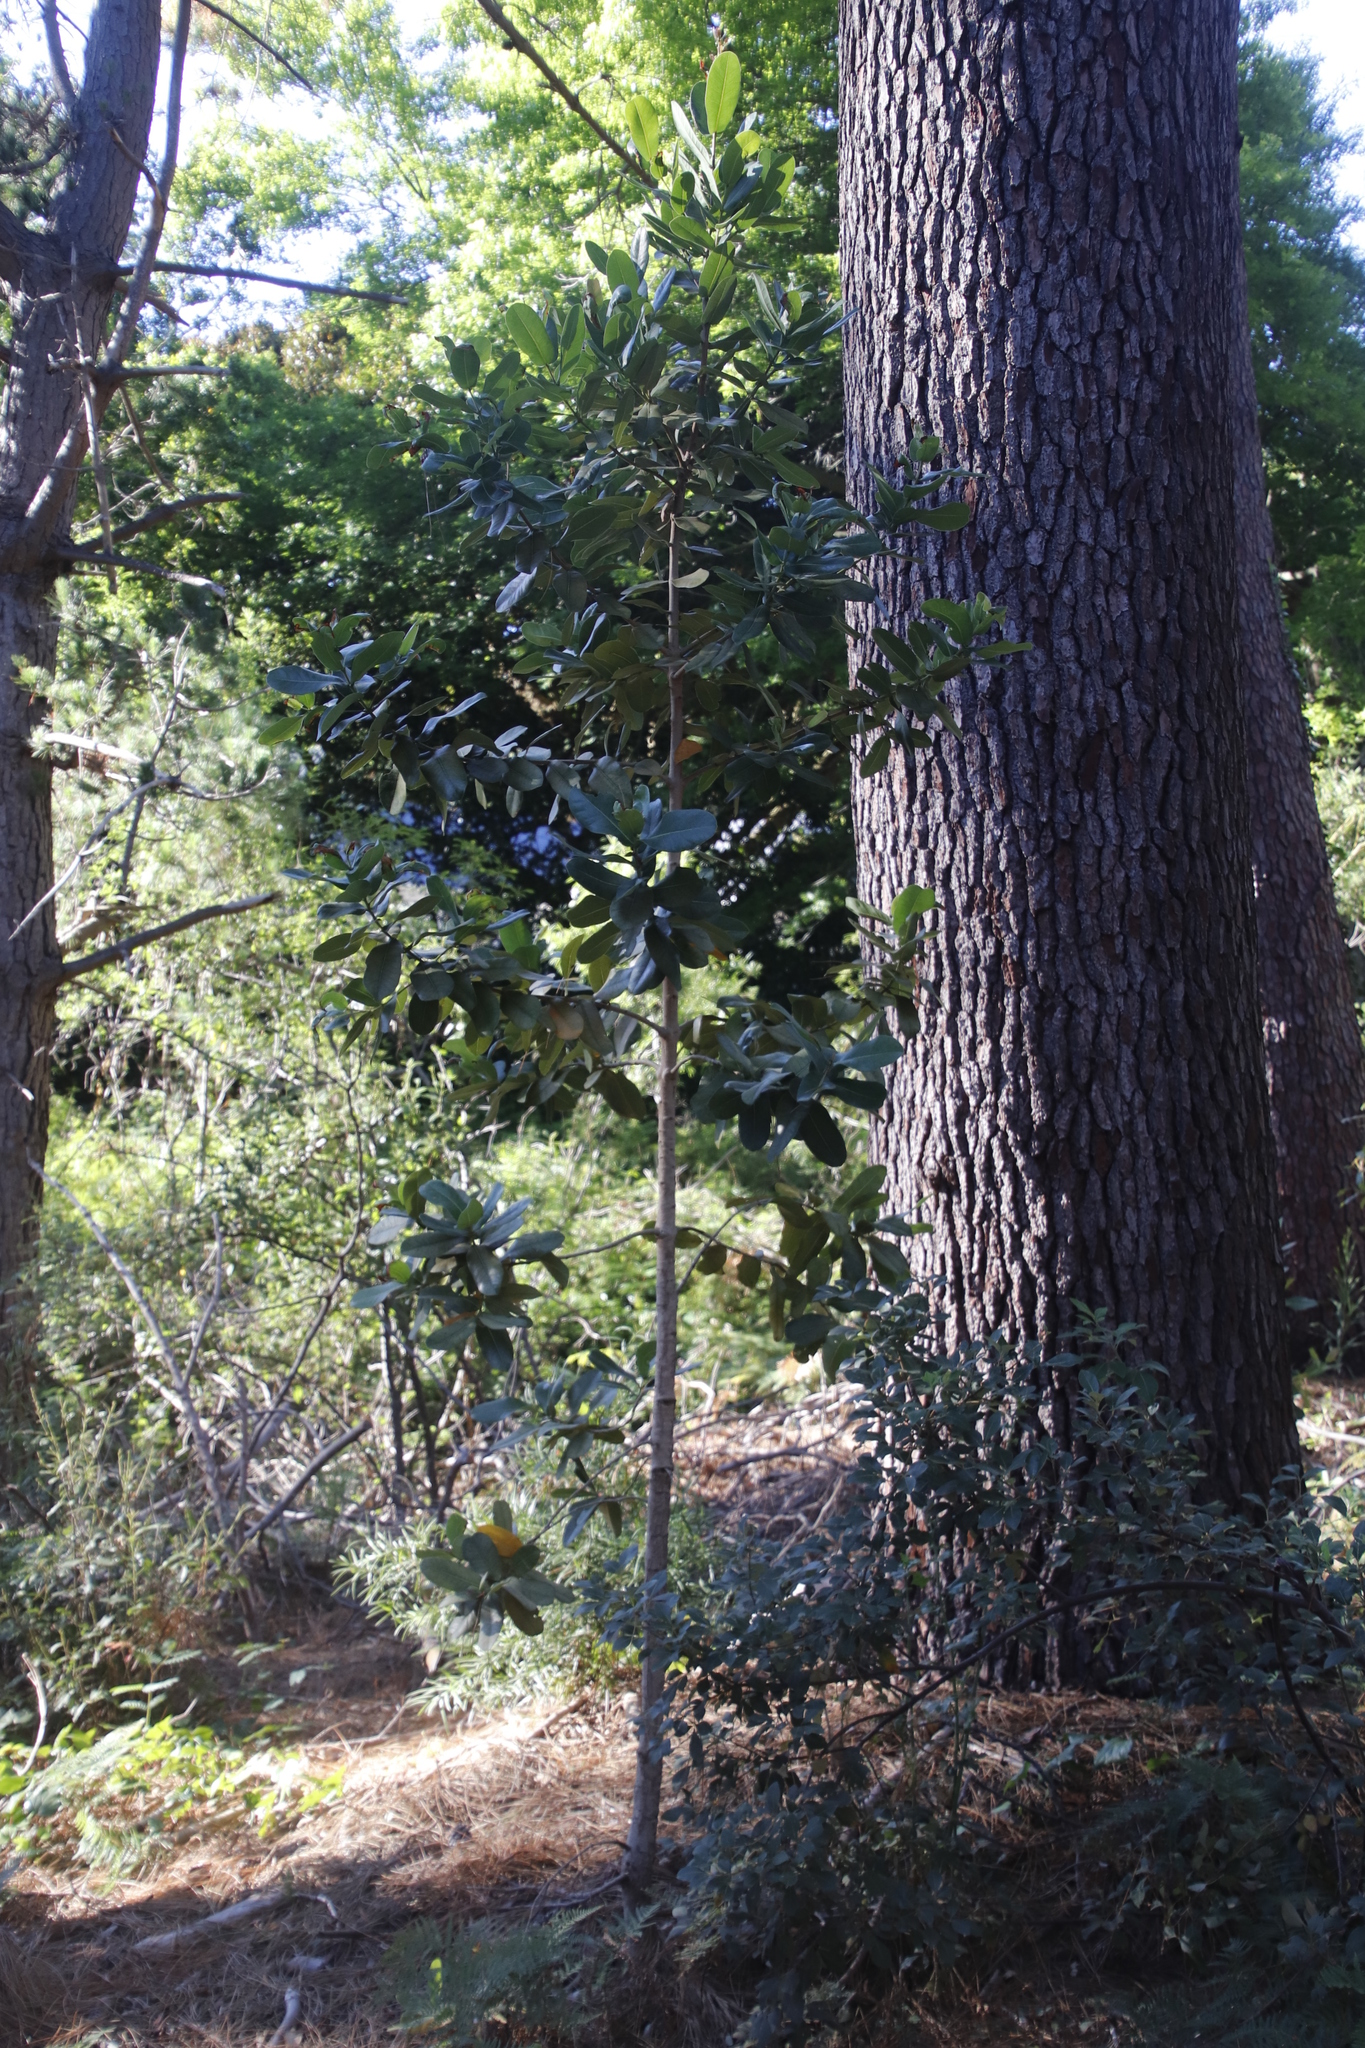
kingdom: Plantae
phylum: Tracheophyta
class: Magnoliopsida
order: Myrtales
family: Myrtaceae
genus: Syzygium
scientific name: Syzygium cordatum
